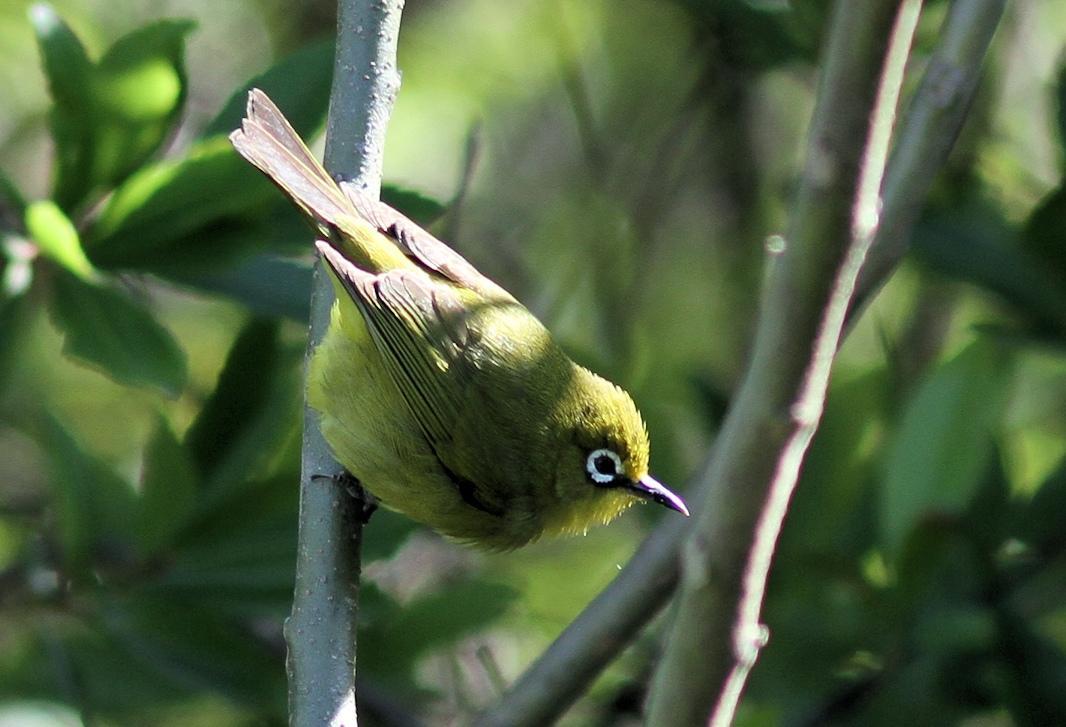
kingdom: Animalia
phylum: Chordata
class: Aves
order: Passeriformes
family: Zosteropidae
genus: Zosterops
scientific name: Zosterops virens
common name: Cape white-eye
